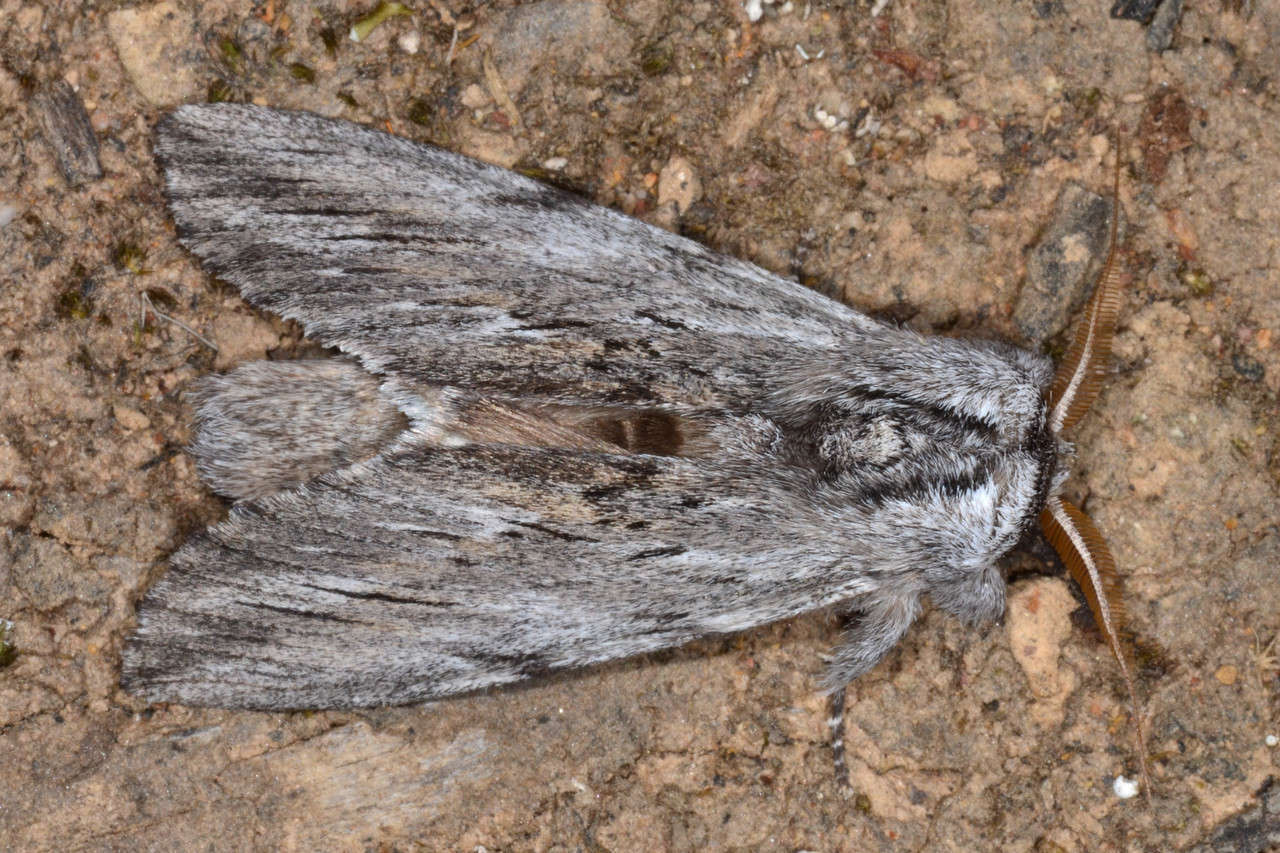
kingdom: Animalia
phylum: Arthropoda
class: Insecta
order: Lepidoptera
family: Notodontidae
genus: Destolmia
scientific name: Destolmia lineata
